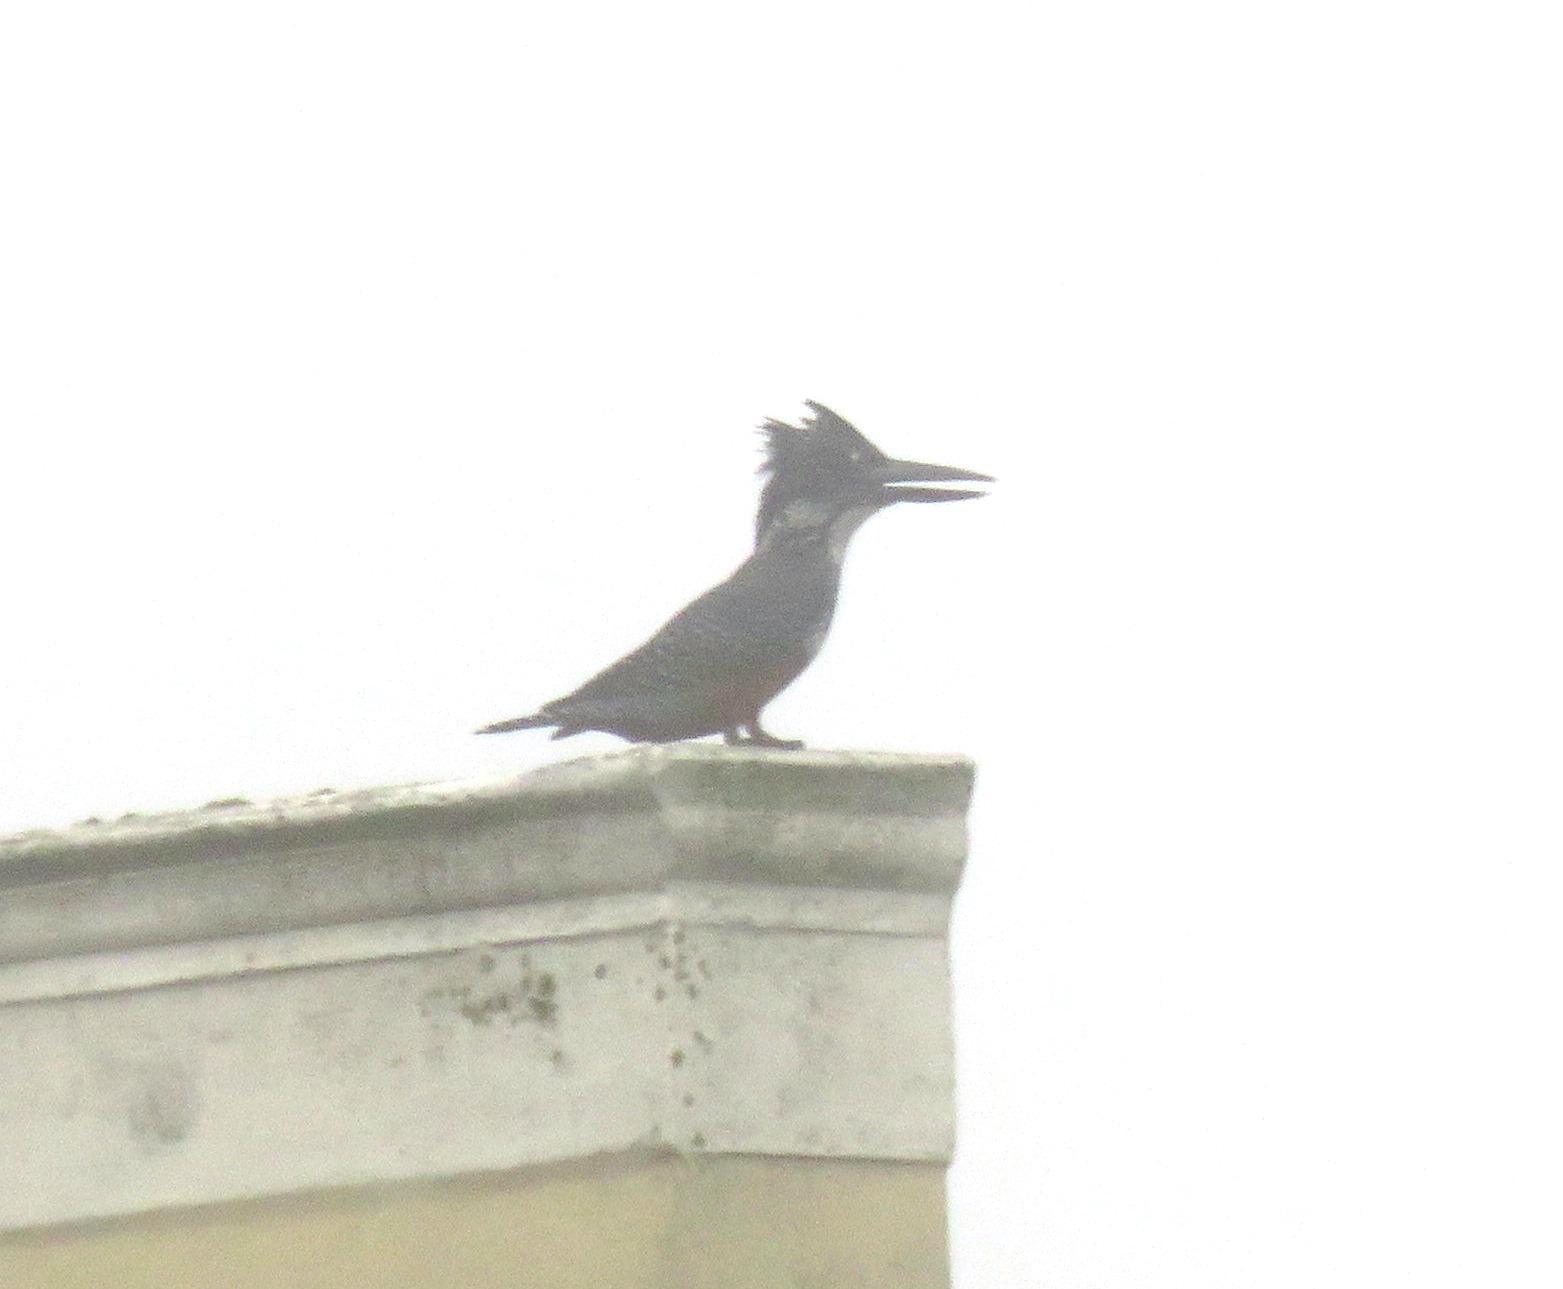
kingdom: Animalia
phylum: Chordata
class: Aves
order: Coraciiformes
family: Alcedinidae
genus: Megaceryle
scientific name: Megaceryle maxima
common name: Giant kingfisher
